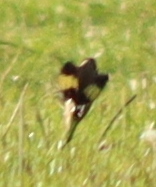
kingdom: Animalia
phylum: Chordata
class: Aves
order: Passeriformes
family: Fringillidae
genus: Carduelis
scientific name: Carduelis carduelis
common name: European goldfinch
